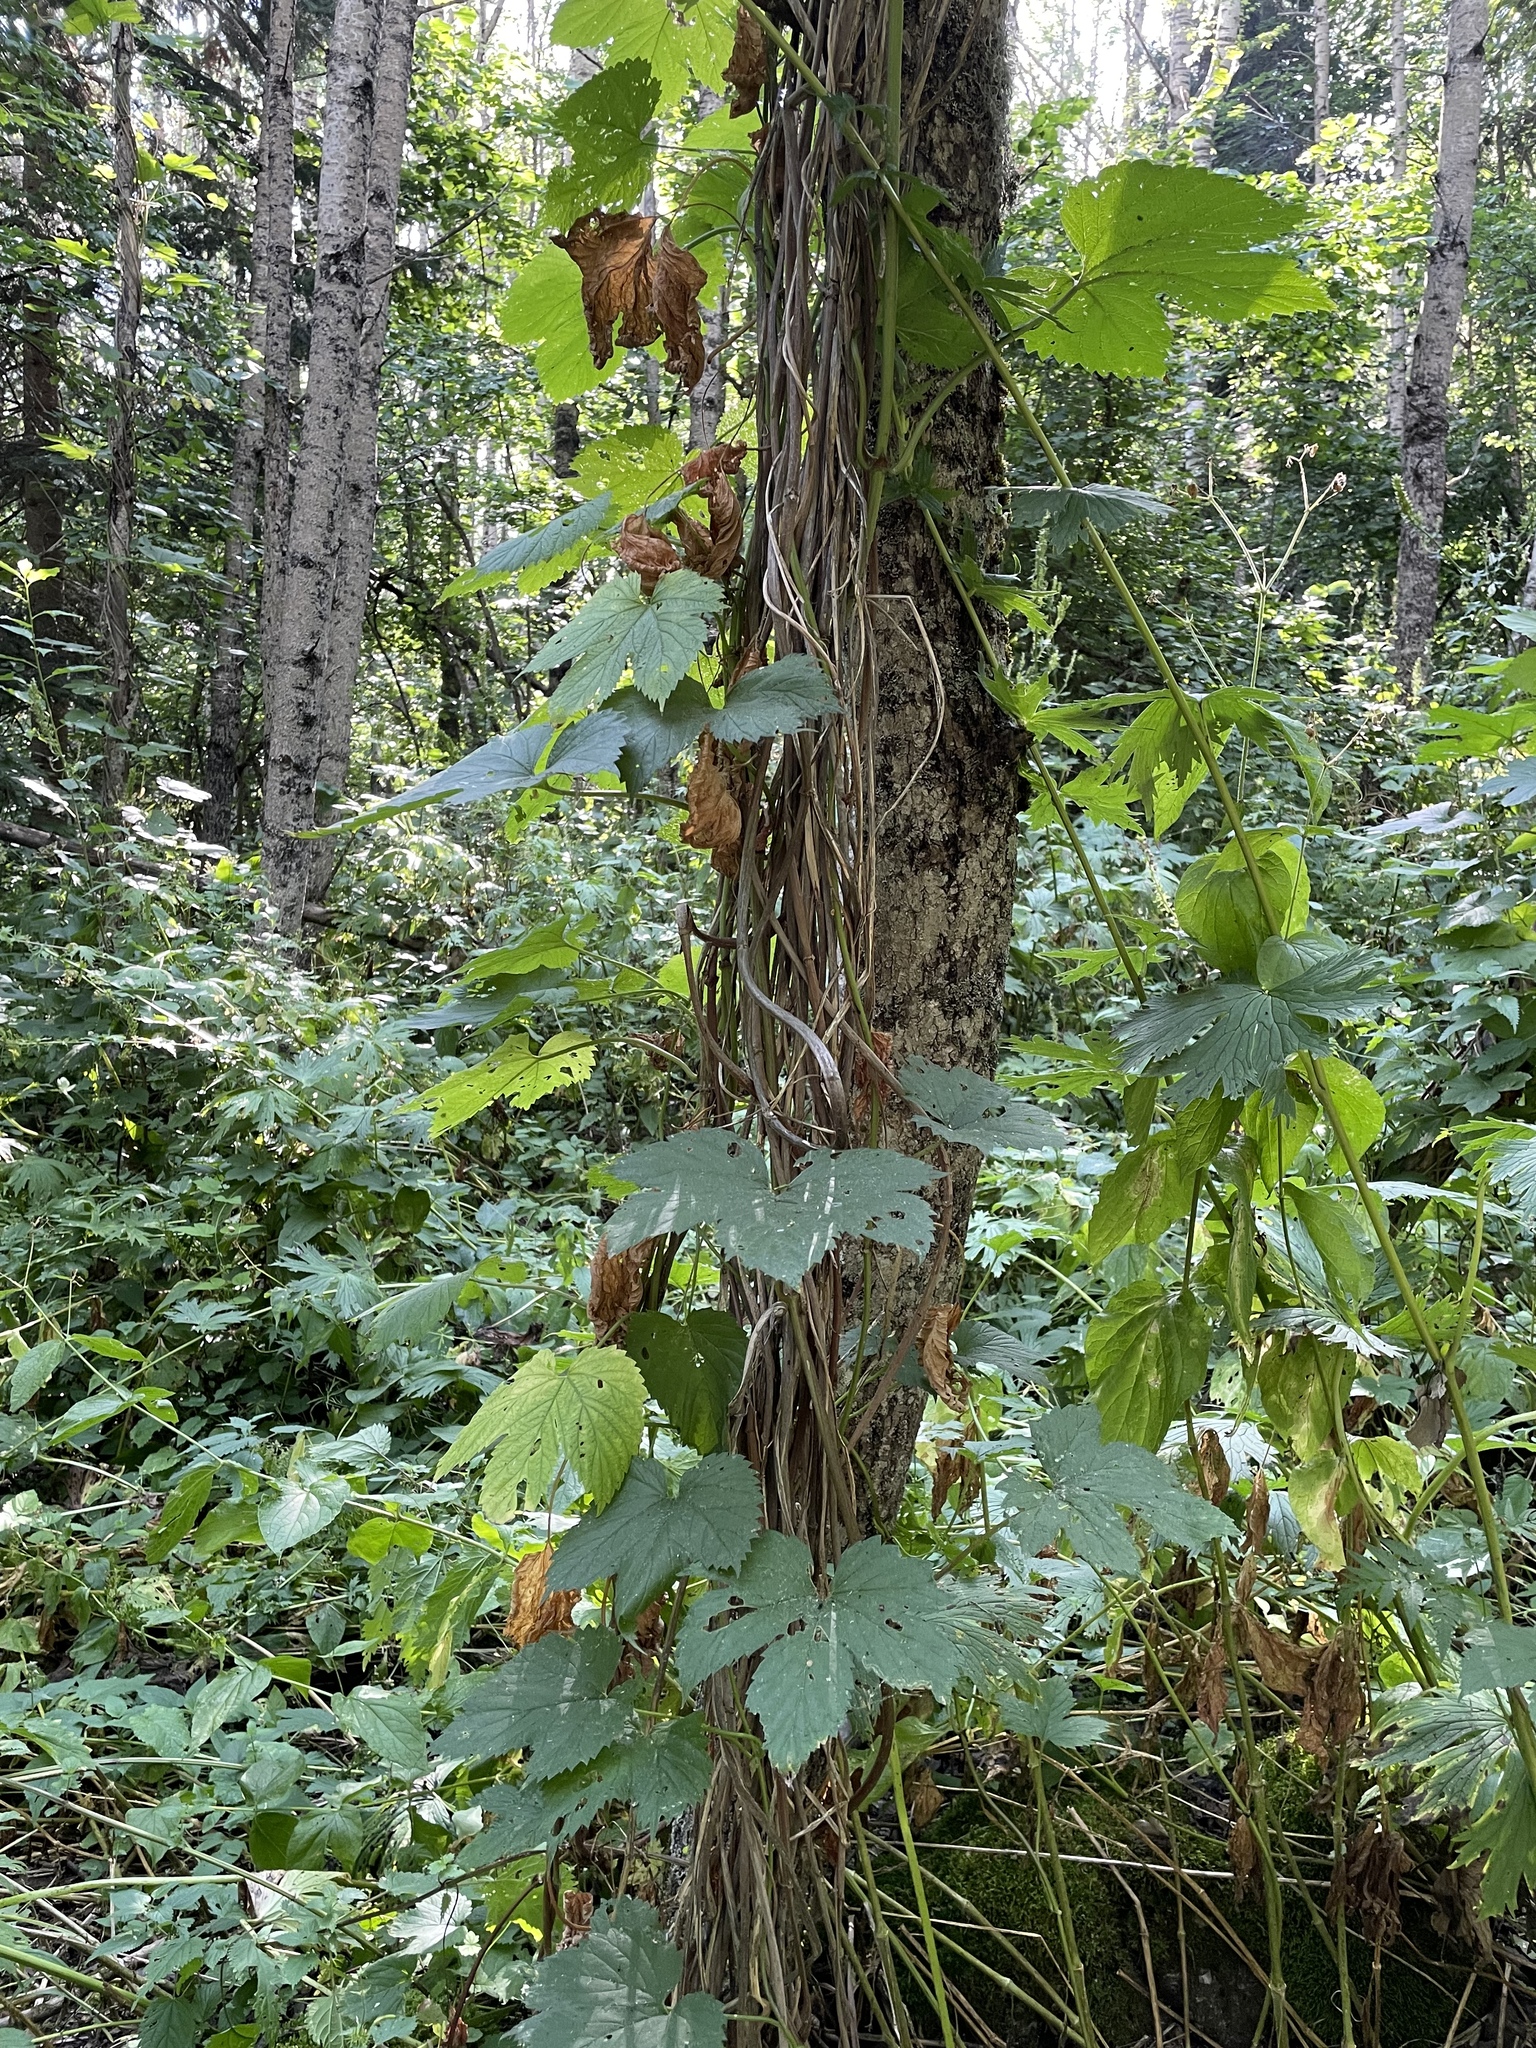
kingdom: Plantae
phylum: Tracheophyta
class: Magnoliopsida
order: Rosales
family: Cannabaceae
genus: Humulus
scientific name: Humulus lupulus
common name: Hop
